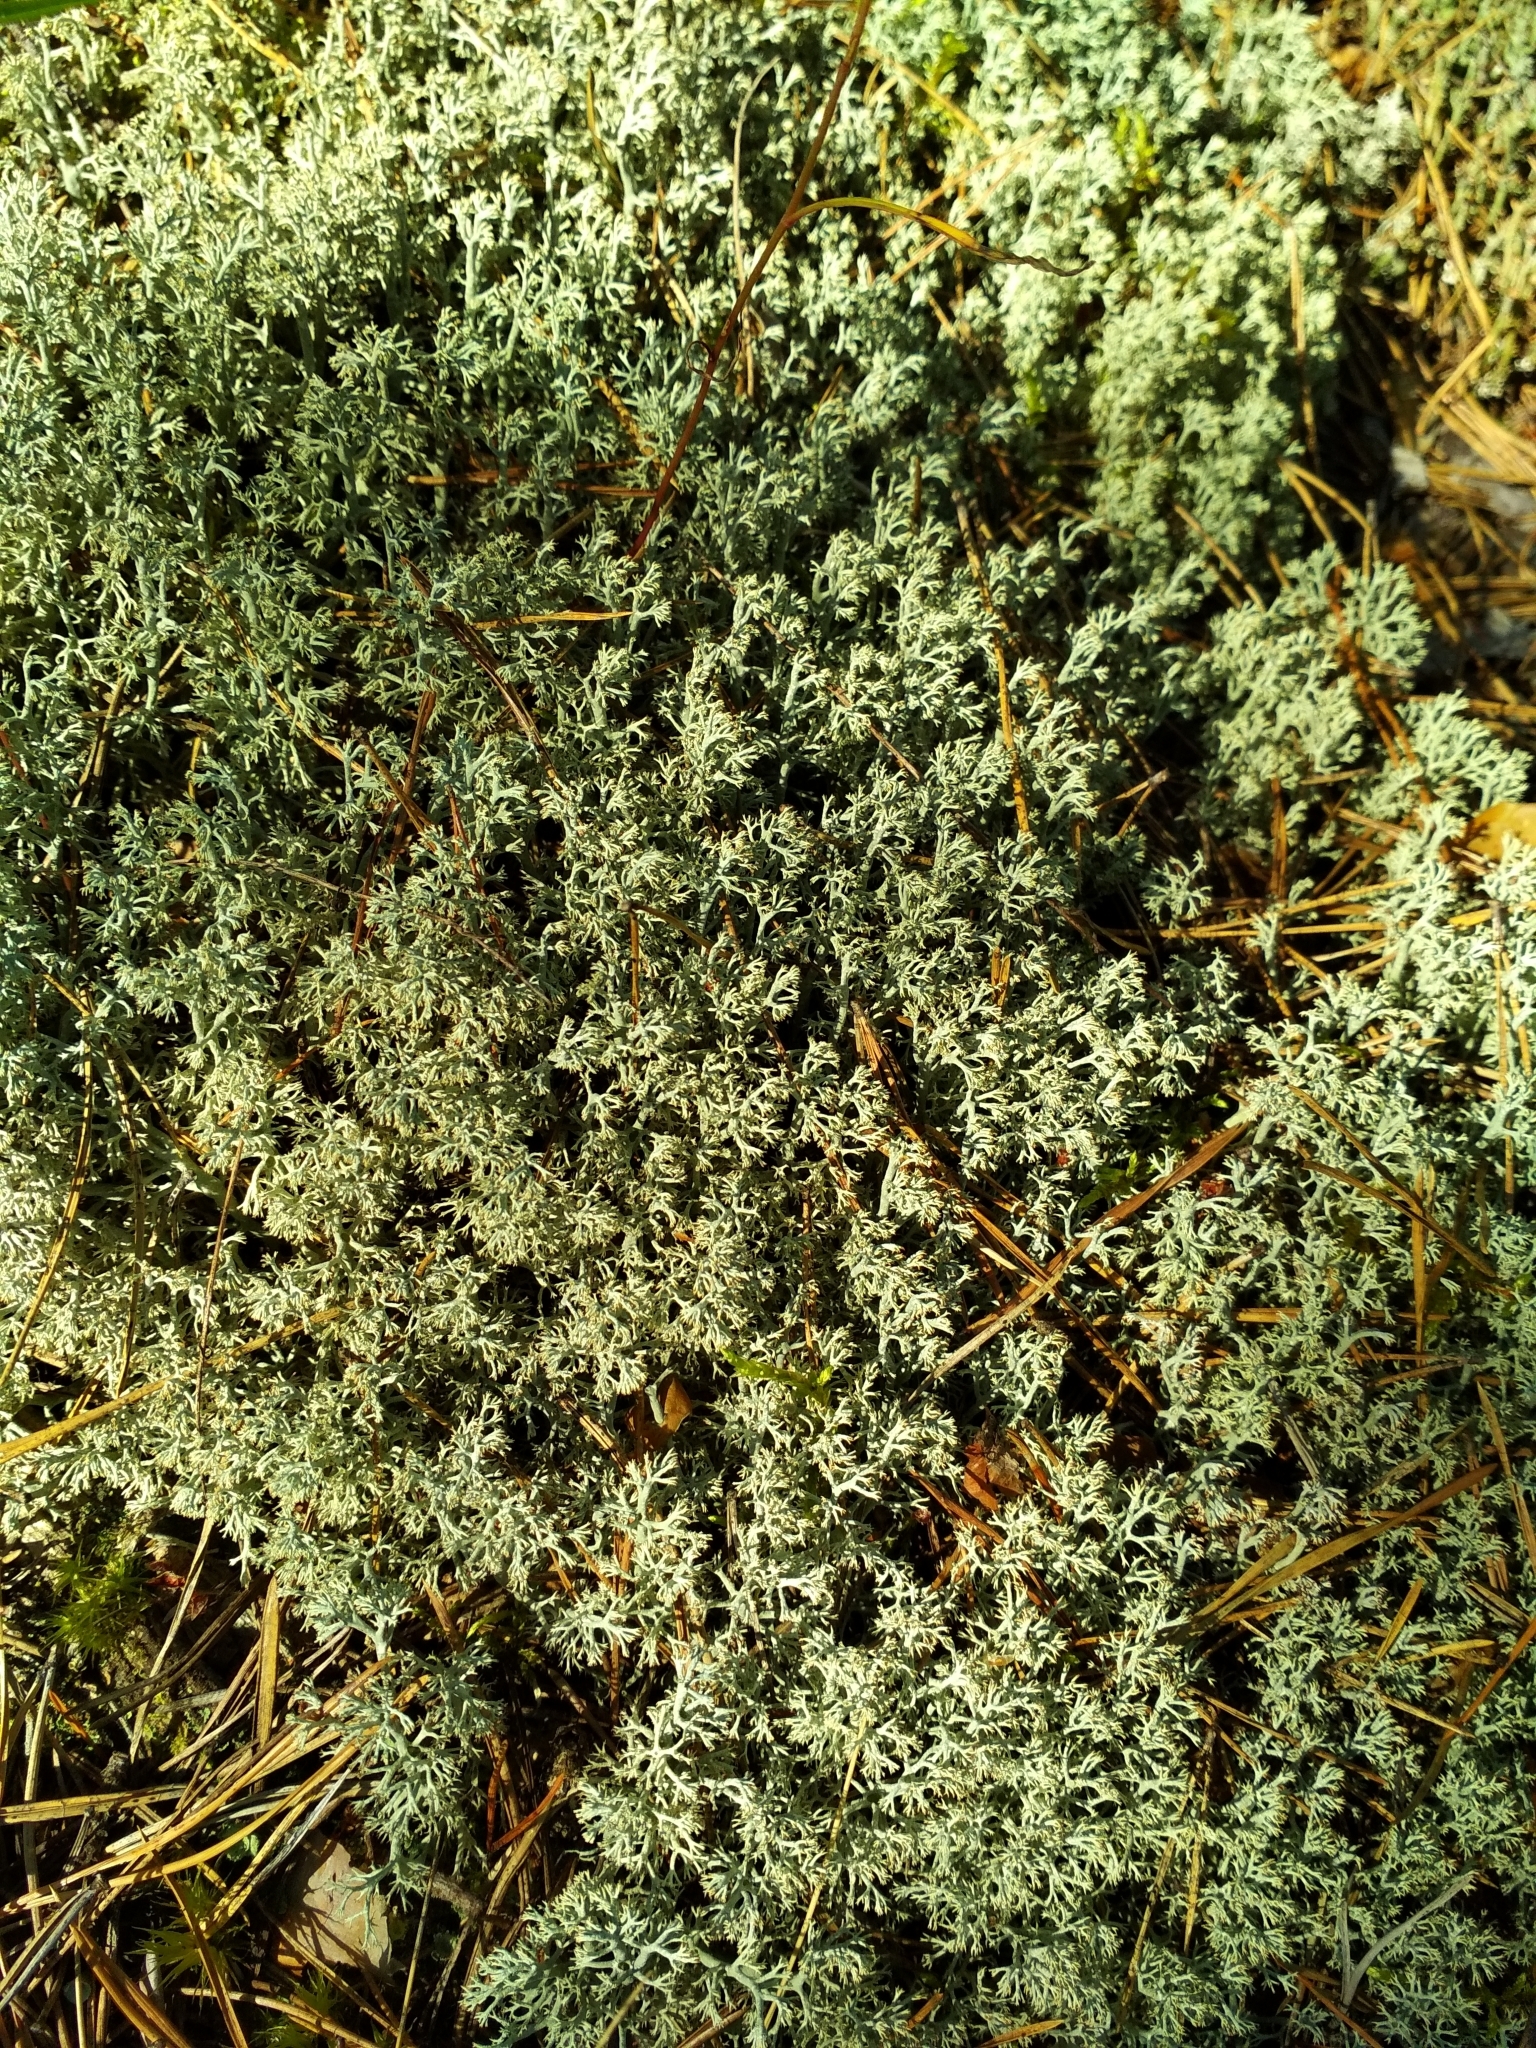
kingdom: Fungi
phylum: Ascomycota
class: Lecanoromycetes
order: Lecanorales
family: Cladoniaceae
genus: Cladonia
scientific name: Cladonia arbuscula
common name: Reindeer lichen
